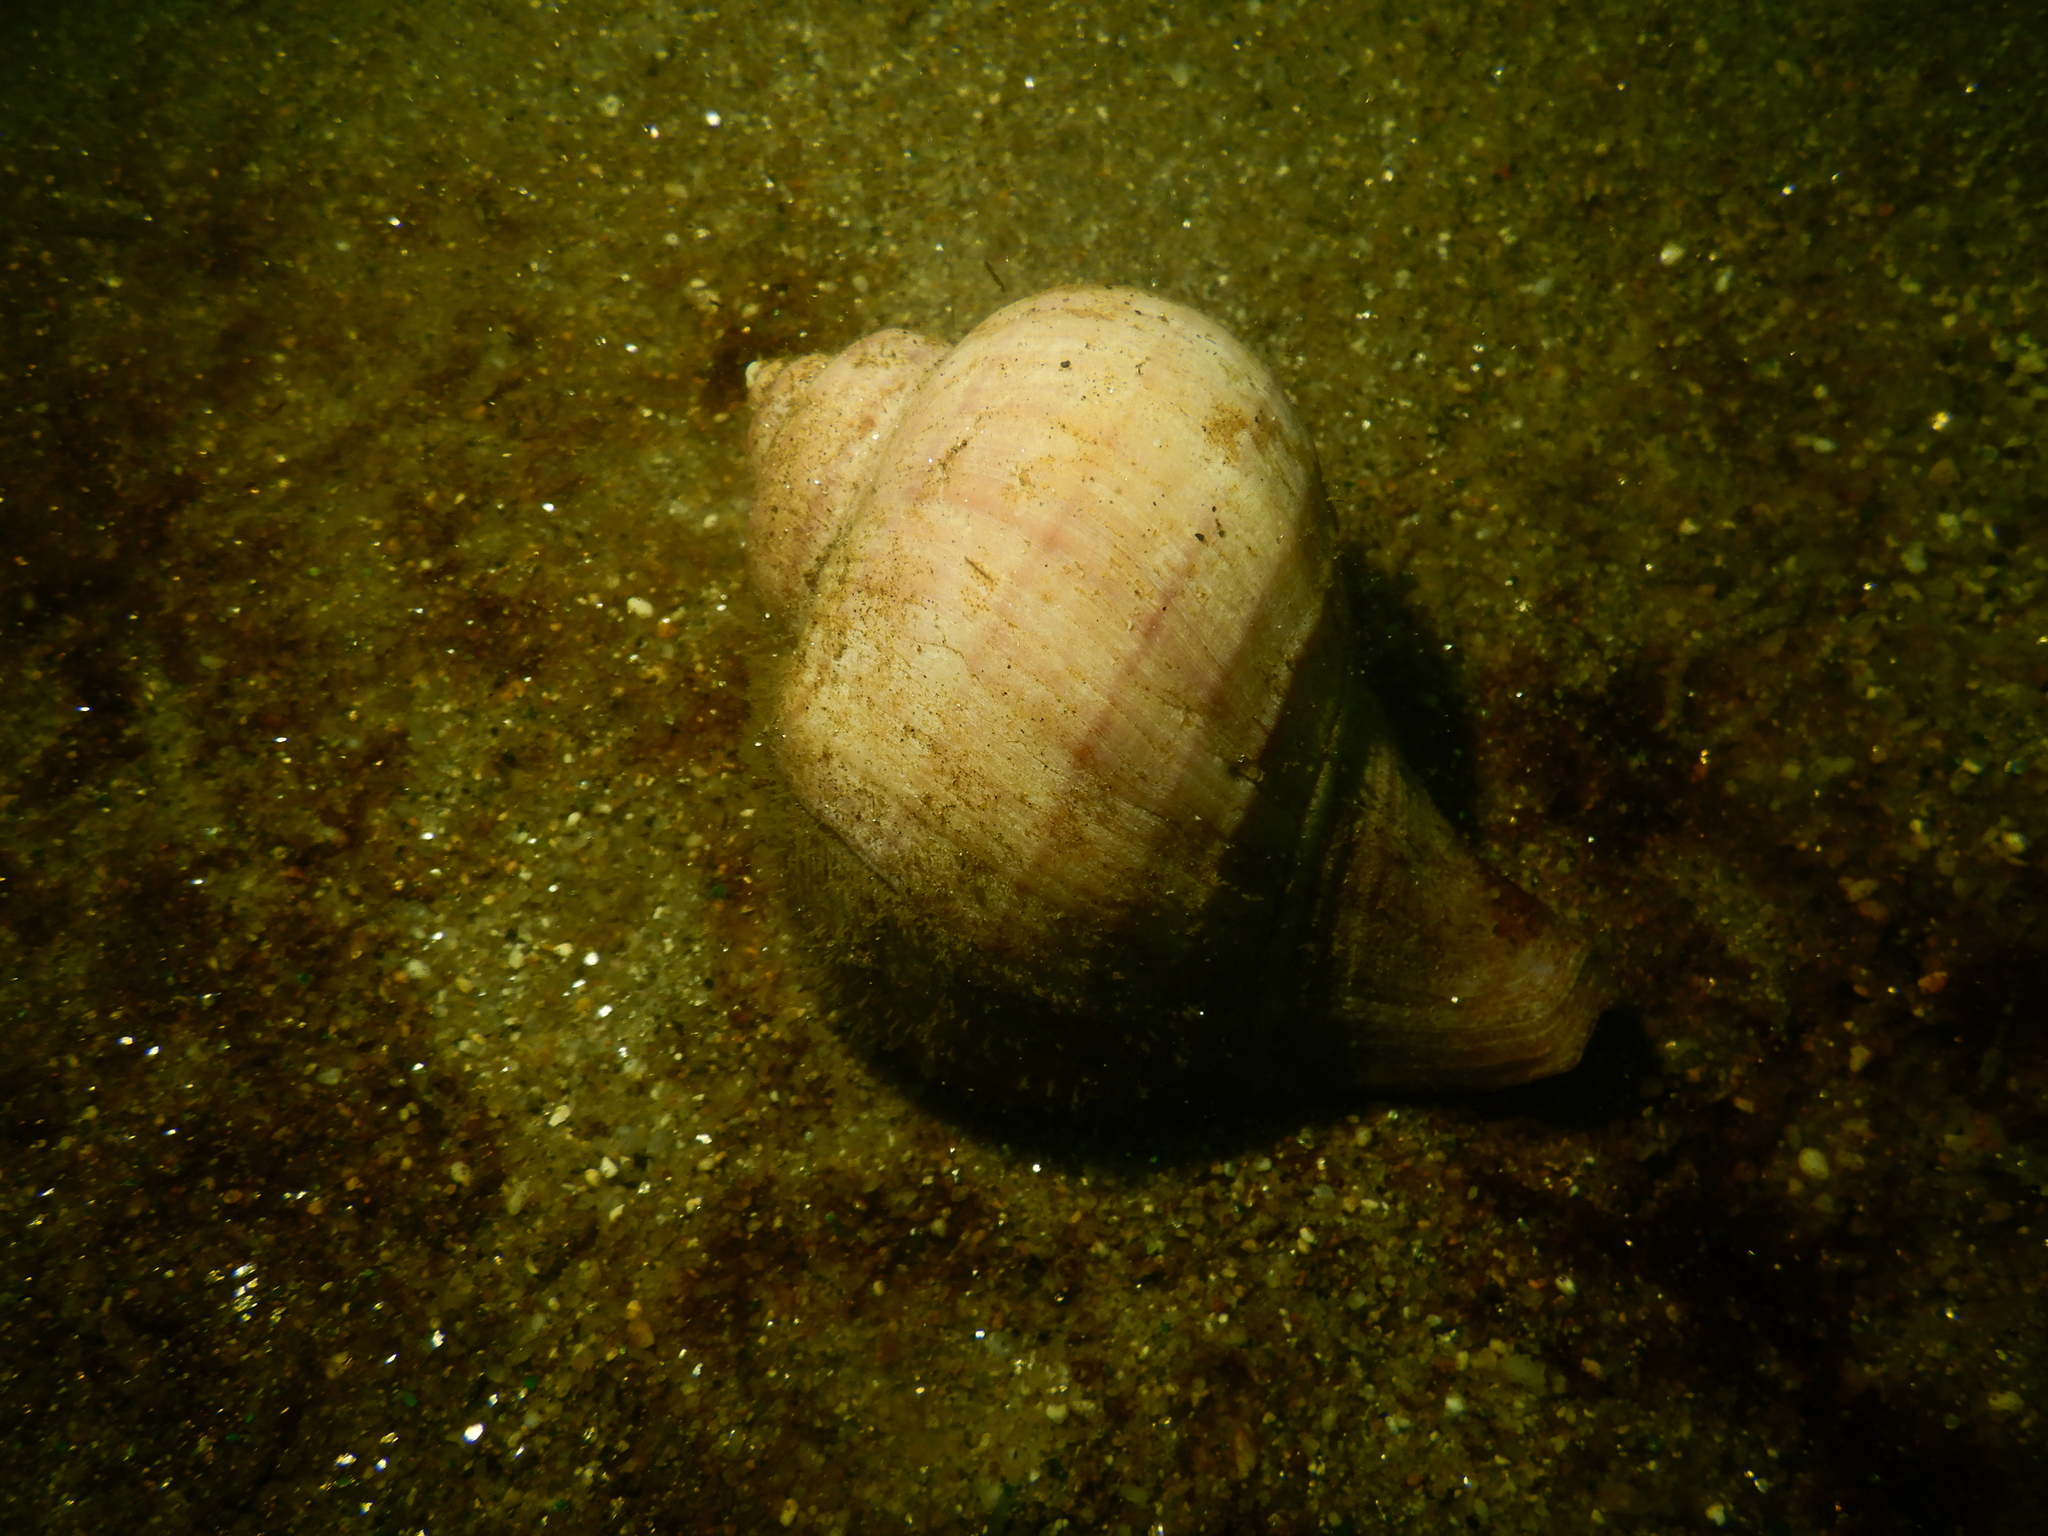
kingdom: Animalia
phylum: Mollusca
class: Gastropoda
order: Neogastropoda
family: Muricidae
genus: Chorus
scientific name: Chorus giganteus
